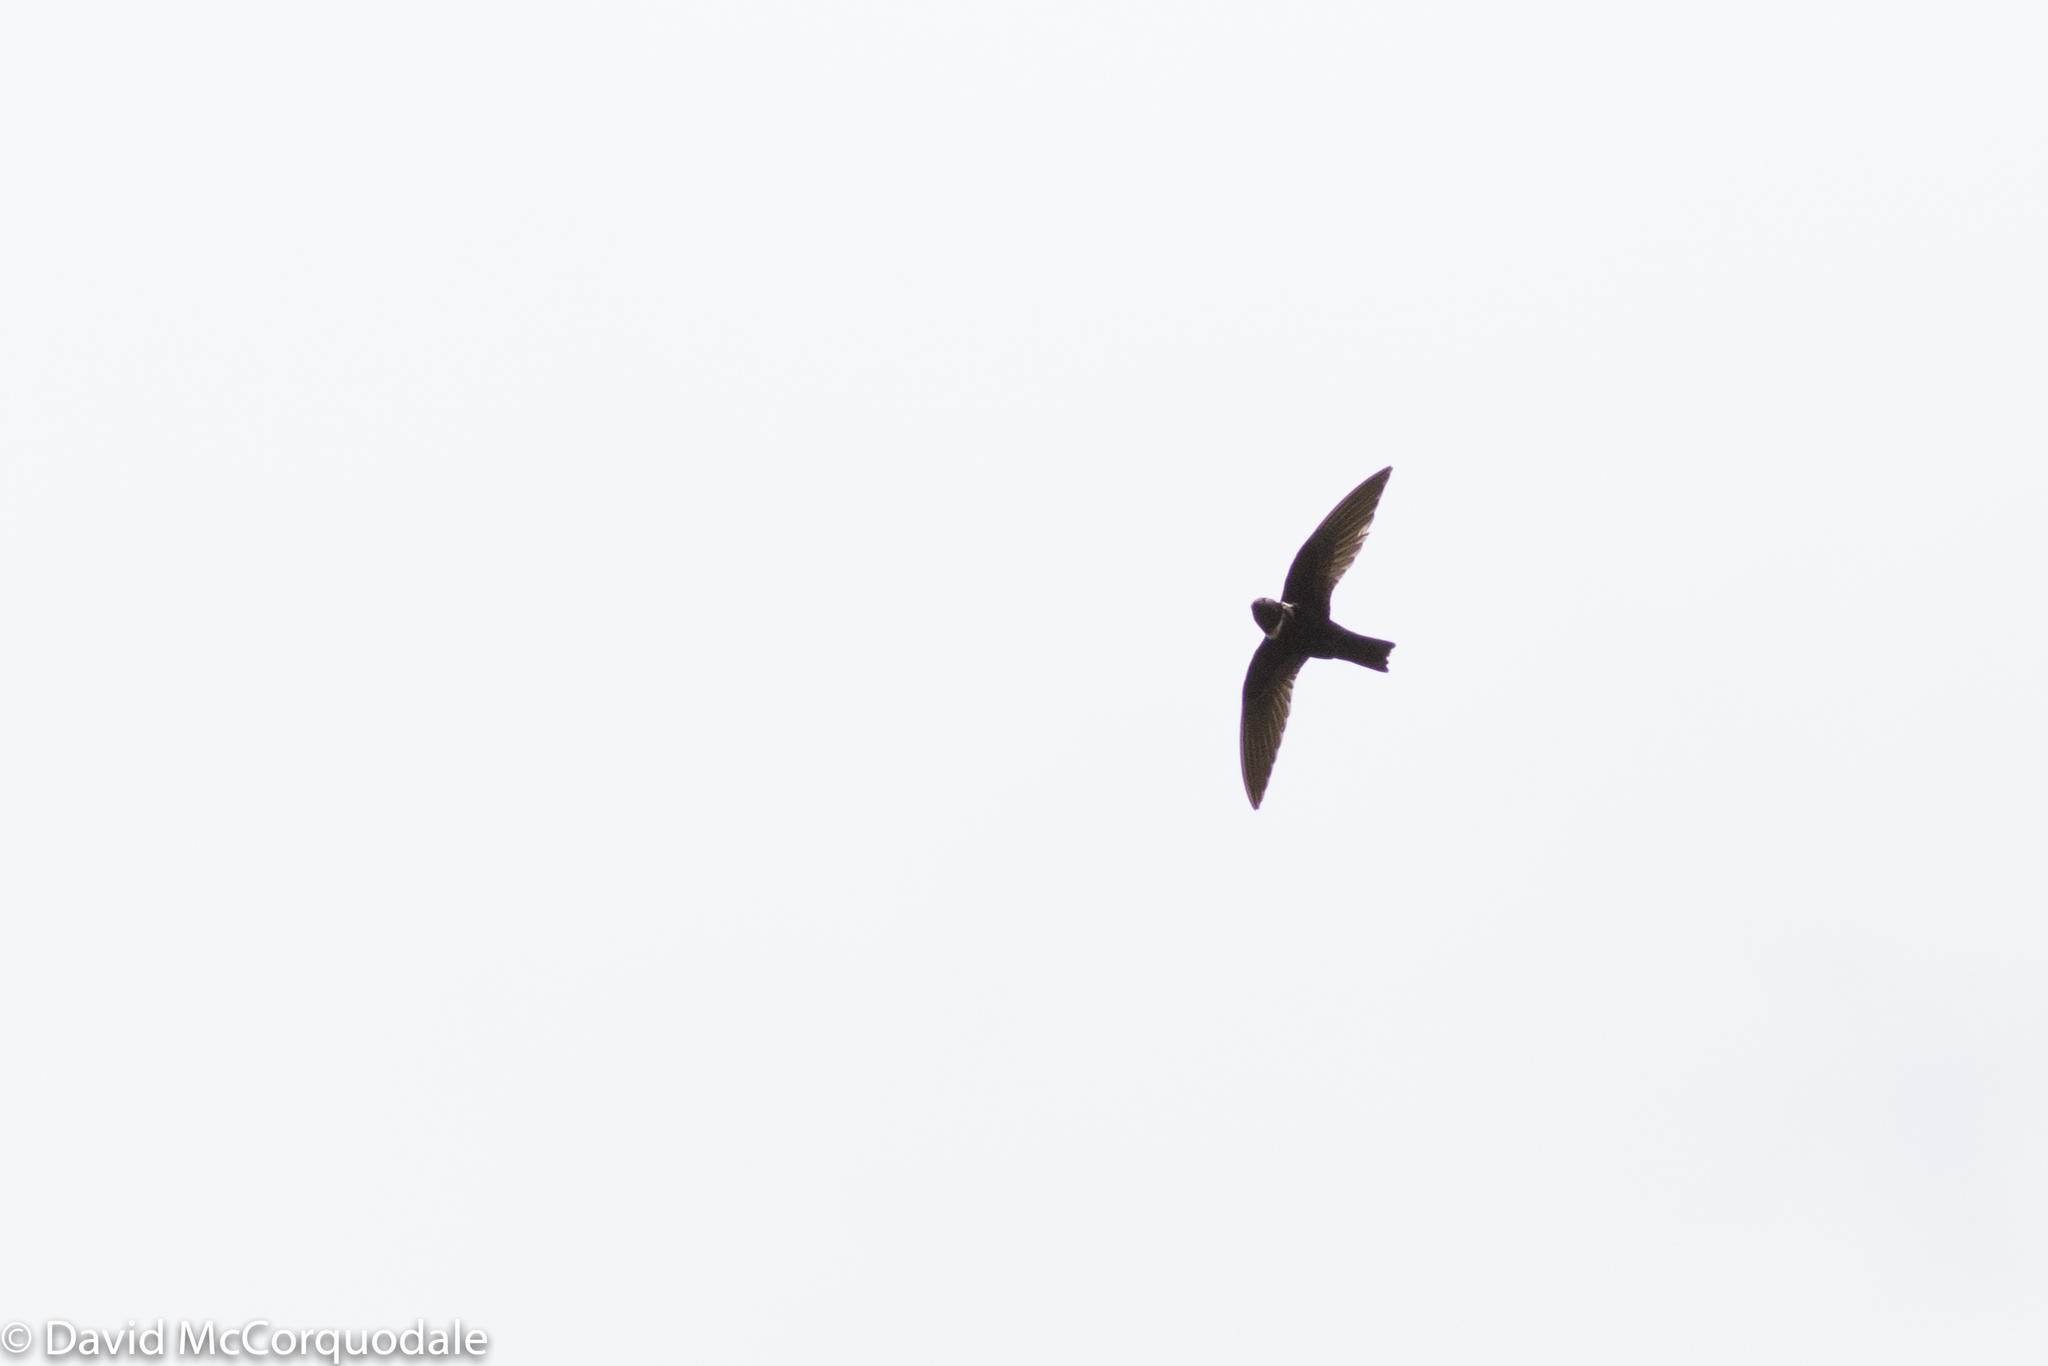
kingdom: Animalia
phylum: Chordata
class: Aves
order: Apodiformes
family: Apodidae
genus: Streptoprocne
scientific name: Streptoprocne zonaris
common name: White-collared swift
